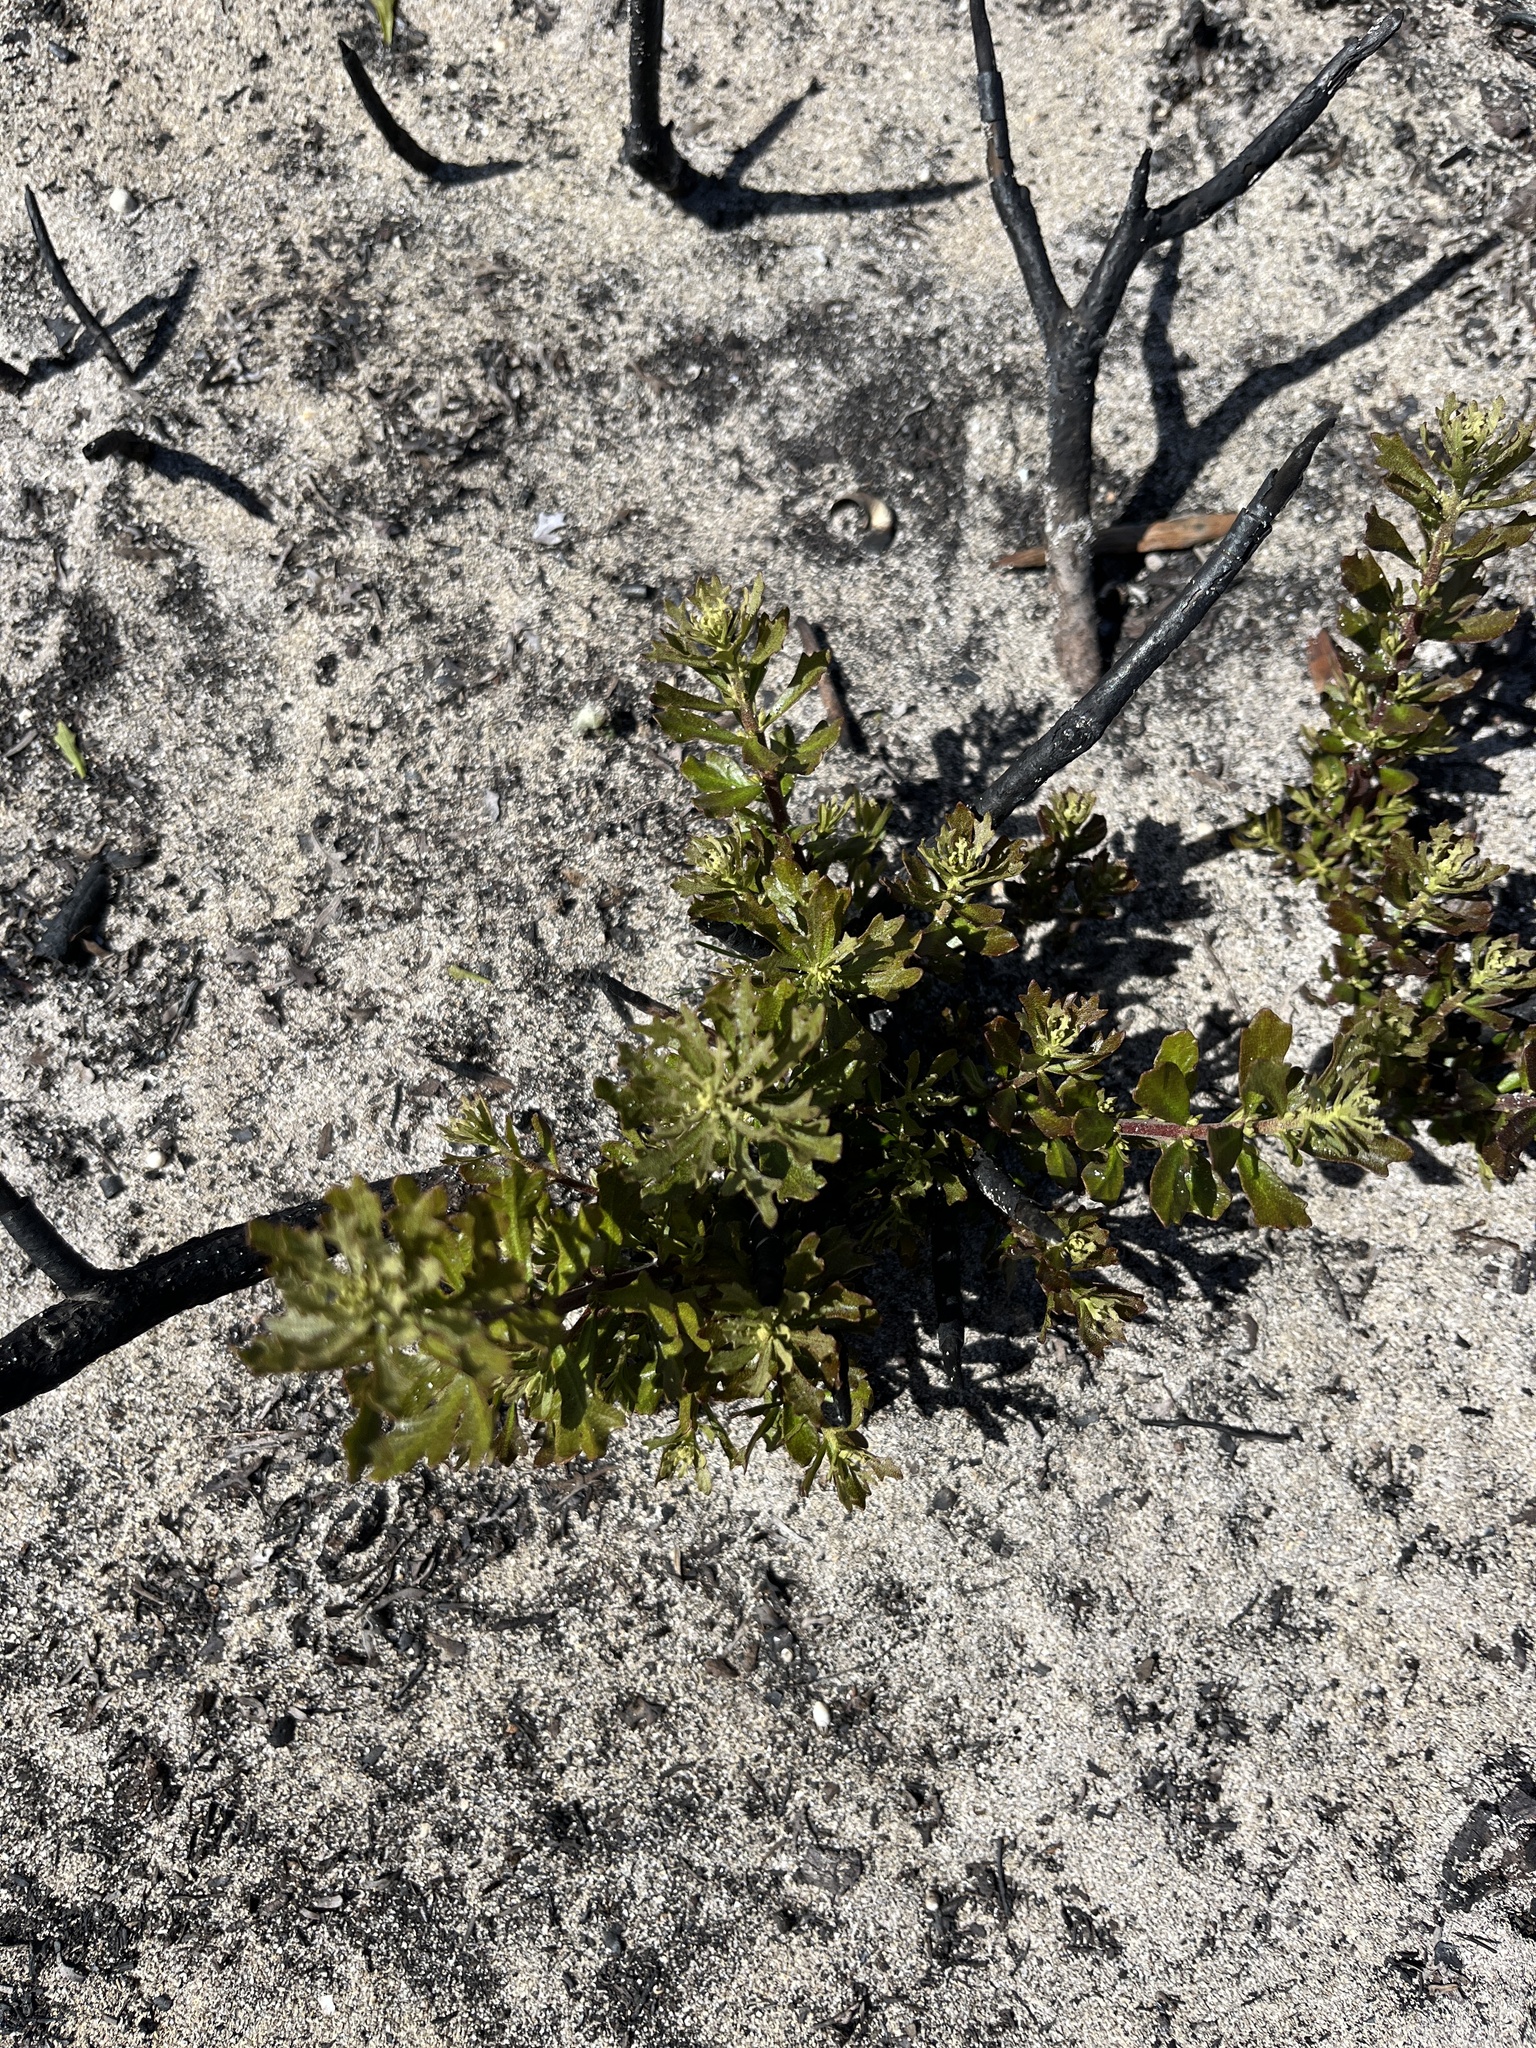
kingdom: Plantae
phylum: Tracheophyta
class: Magnoliopsida
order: Fagales
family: Myricaceae
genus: Morella
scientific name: Morella quercifolia
